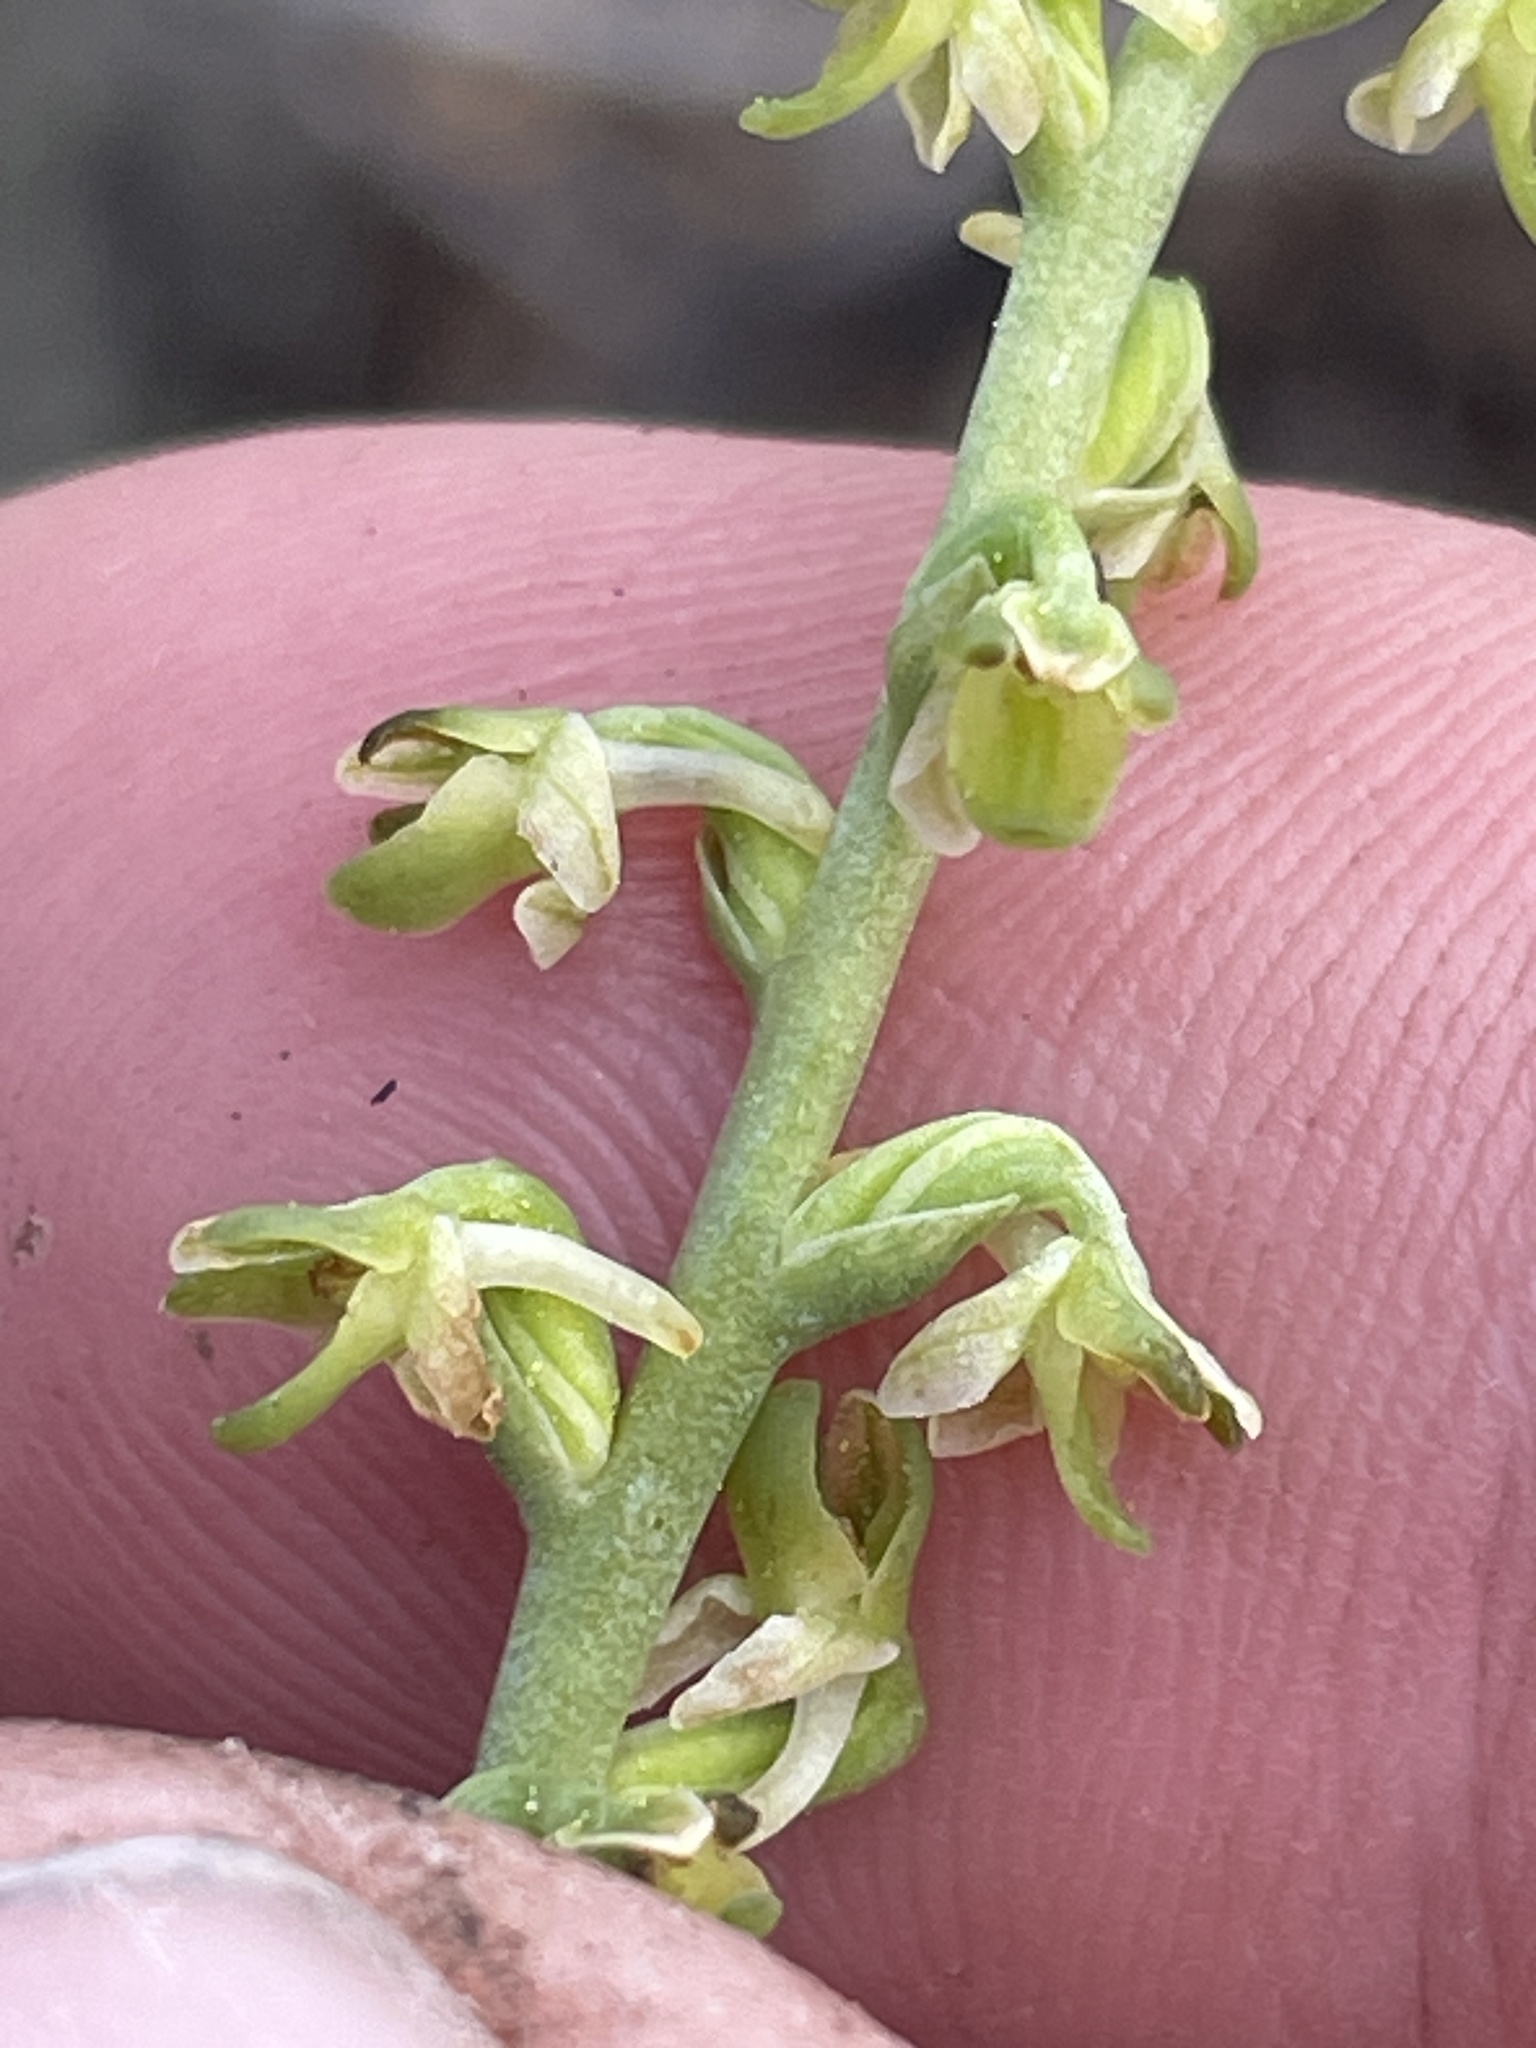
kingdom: Plantae
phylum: Tracheophyta
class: Liliopsida
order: Asparagales
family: Orchidaceae
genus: Platanthera
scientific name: Platanthera unalascensis
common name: Alaska bog orchid
